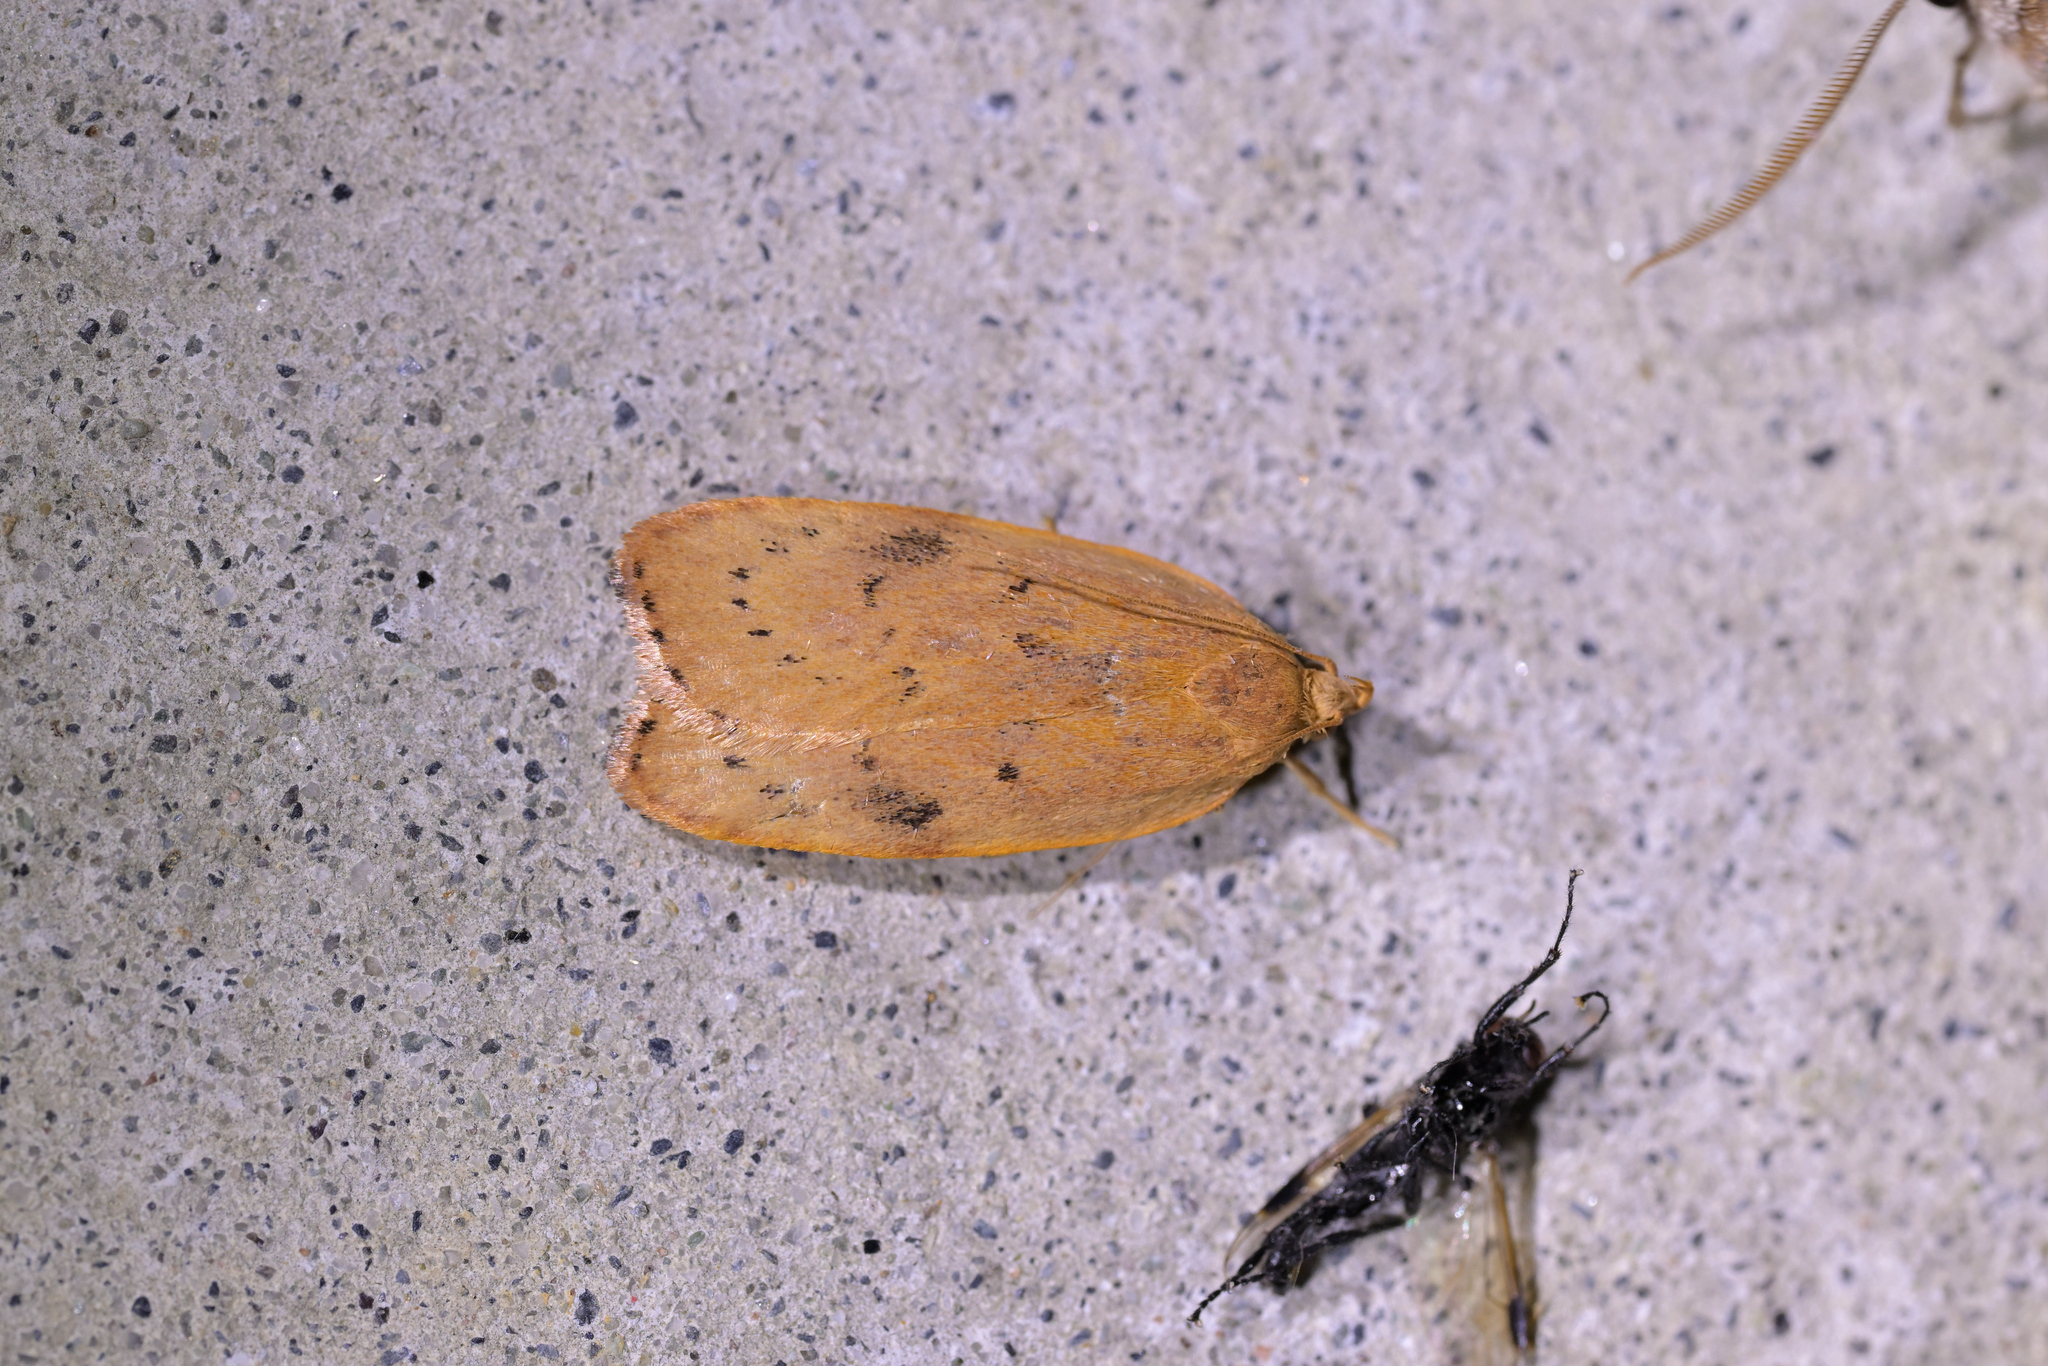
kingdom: Animalia
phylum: Arthropoda
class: Insecta
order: Lepidoptera
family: Depressariidae
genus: Phaeosaces
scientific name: Phaeosaces coarctatella
